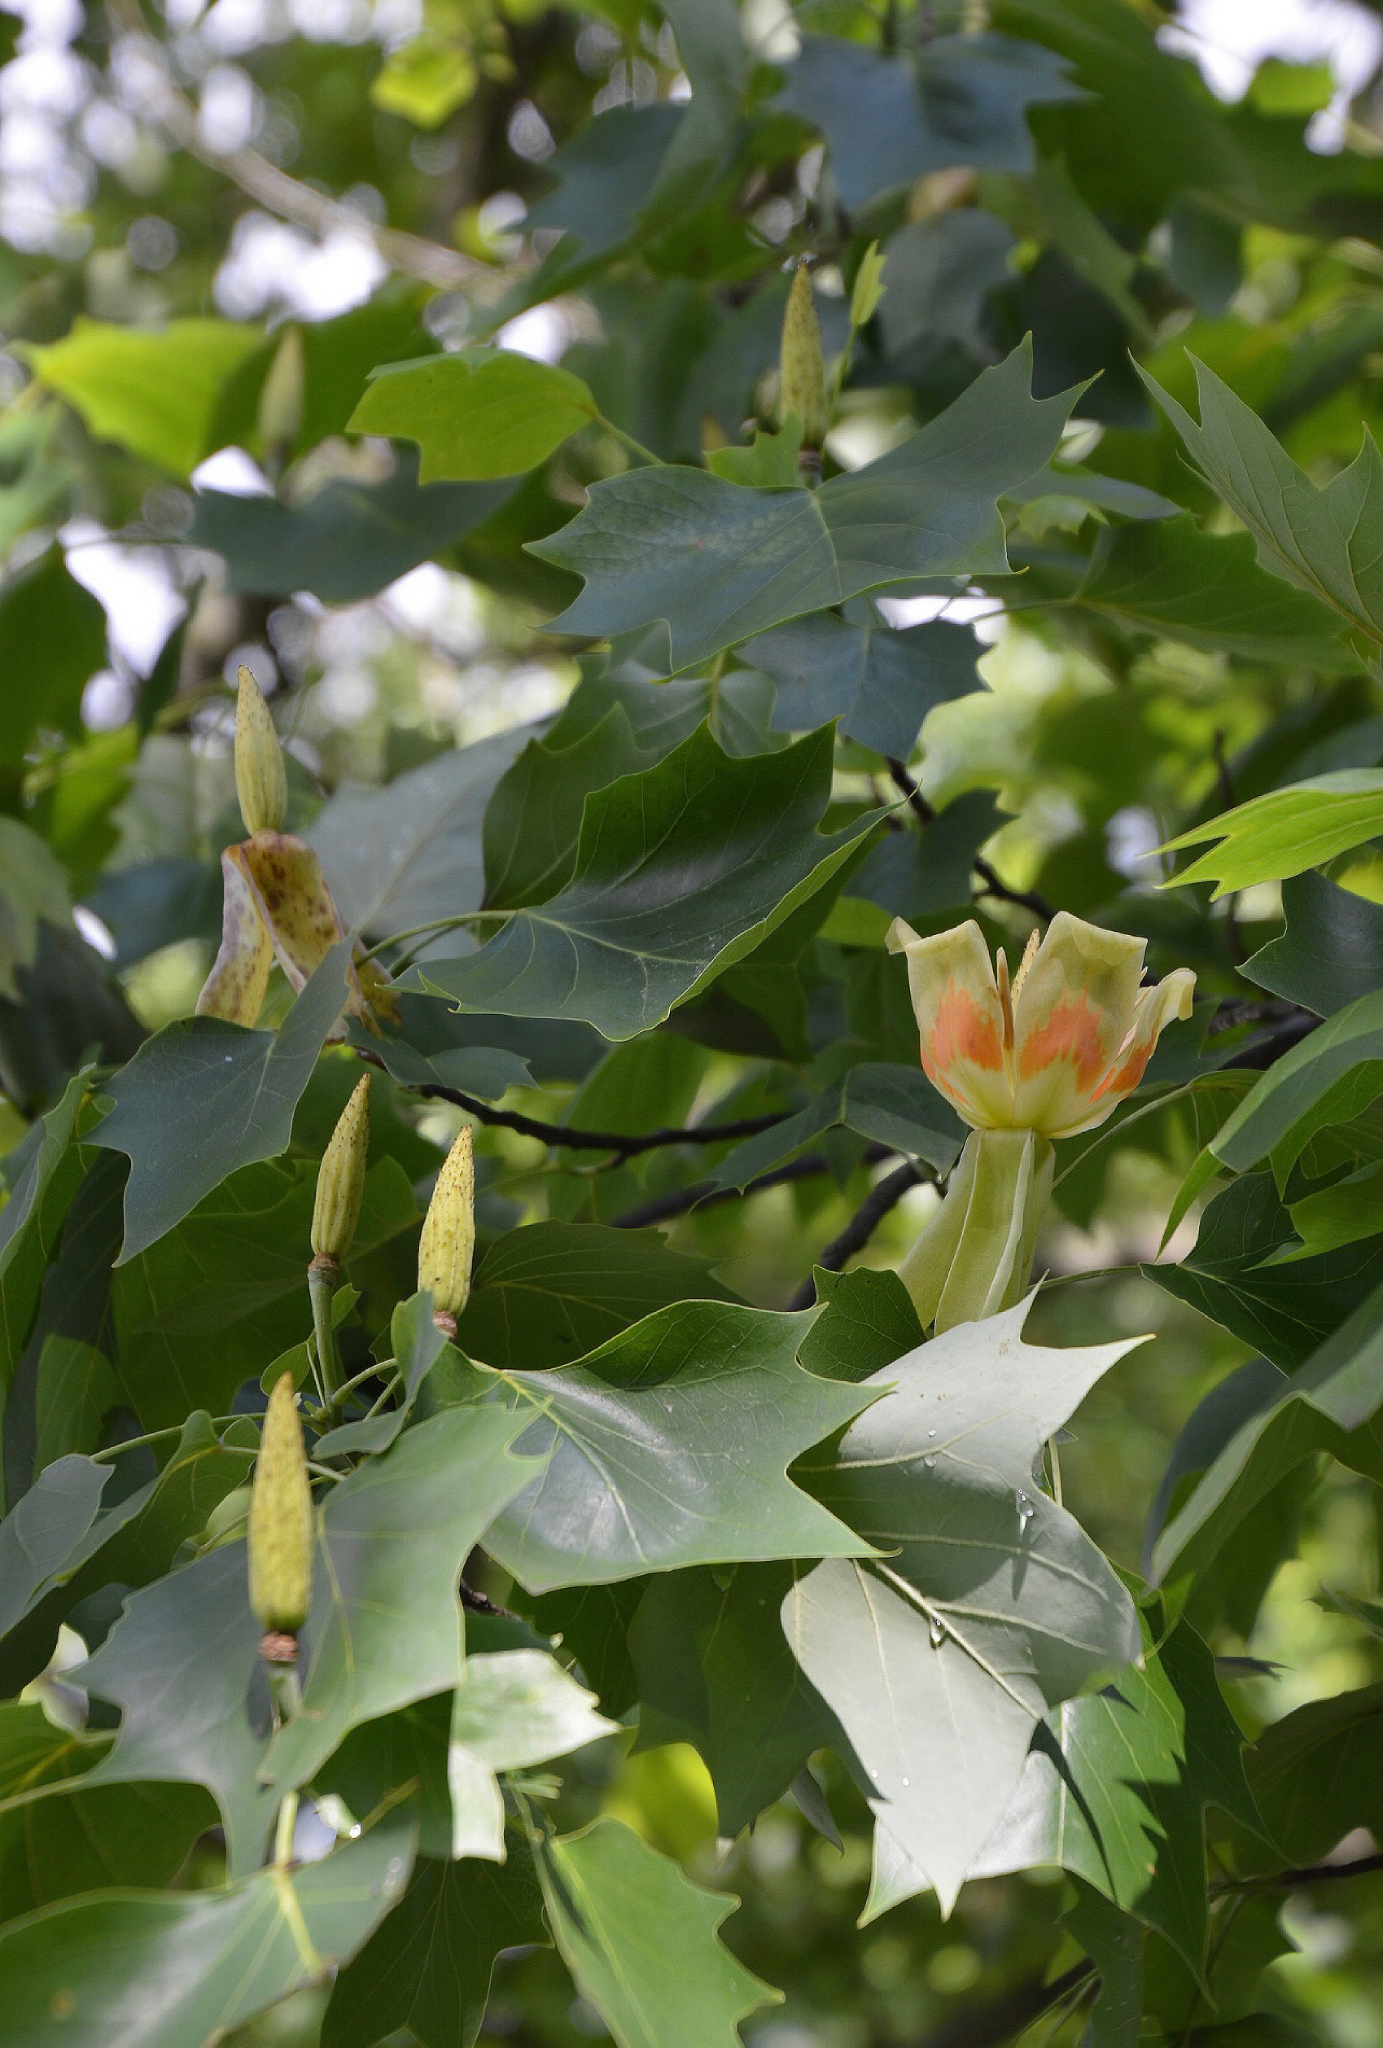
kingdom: Plantae
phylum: Tracheophyta
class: Magnoliopsida
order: Magnoliales
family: Magnoliaceae
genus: Liriodendron
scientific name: Liriodendron tulipifera
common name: Tulip tree
